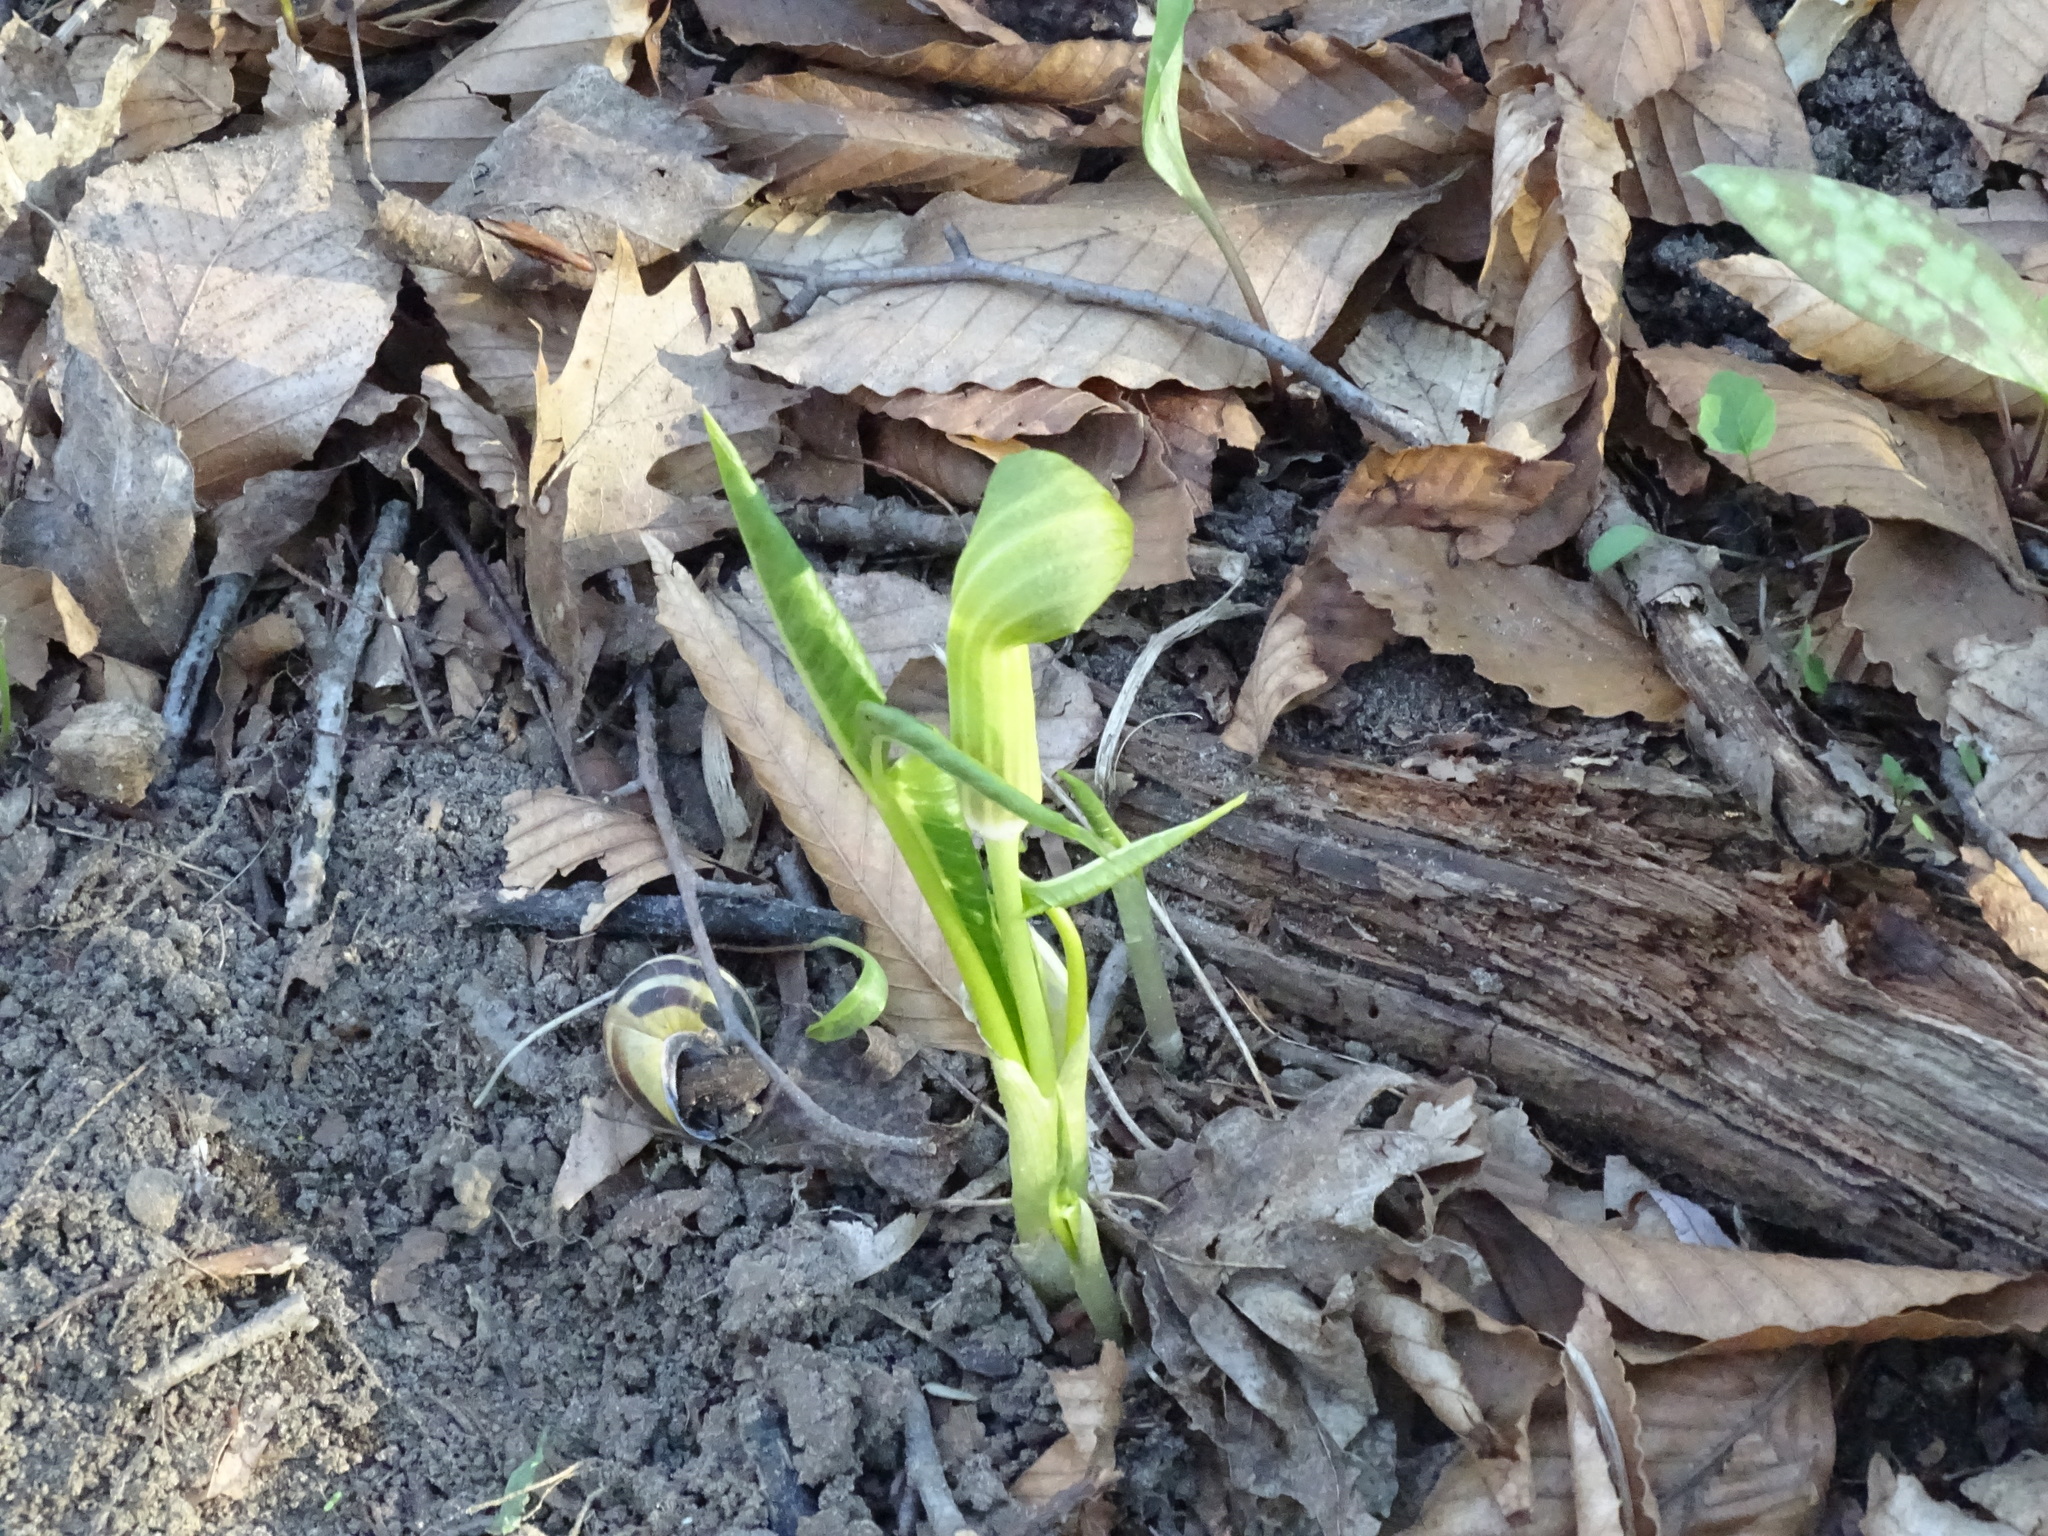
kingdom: Plantae
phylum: Tracheophyta
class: Liliopsida
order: Alismatales
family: Araceae
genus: Arisaema
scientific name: Arisaema triphyllum
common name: Jack-in-the-pulpit
